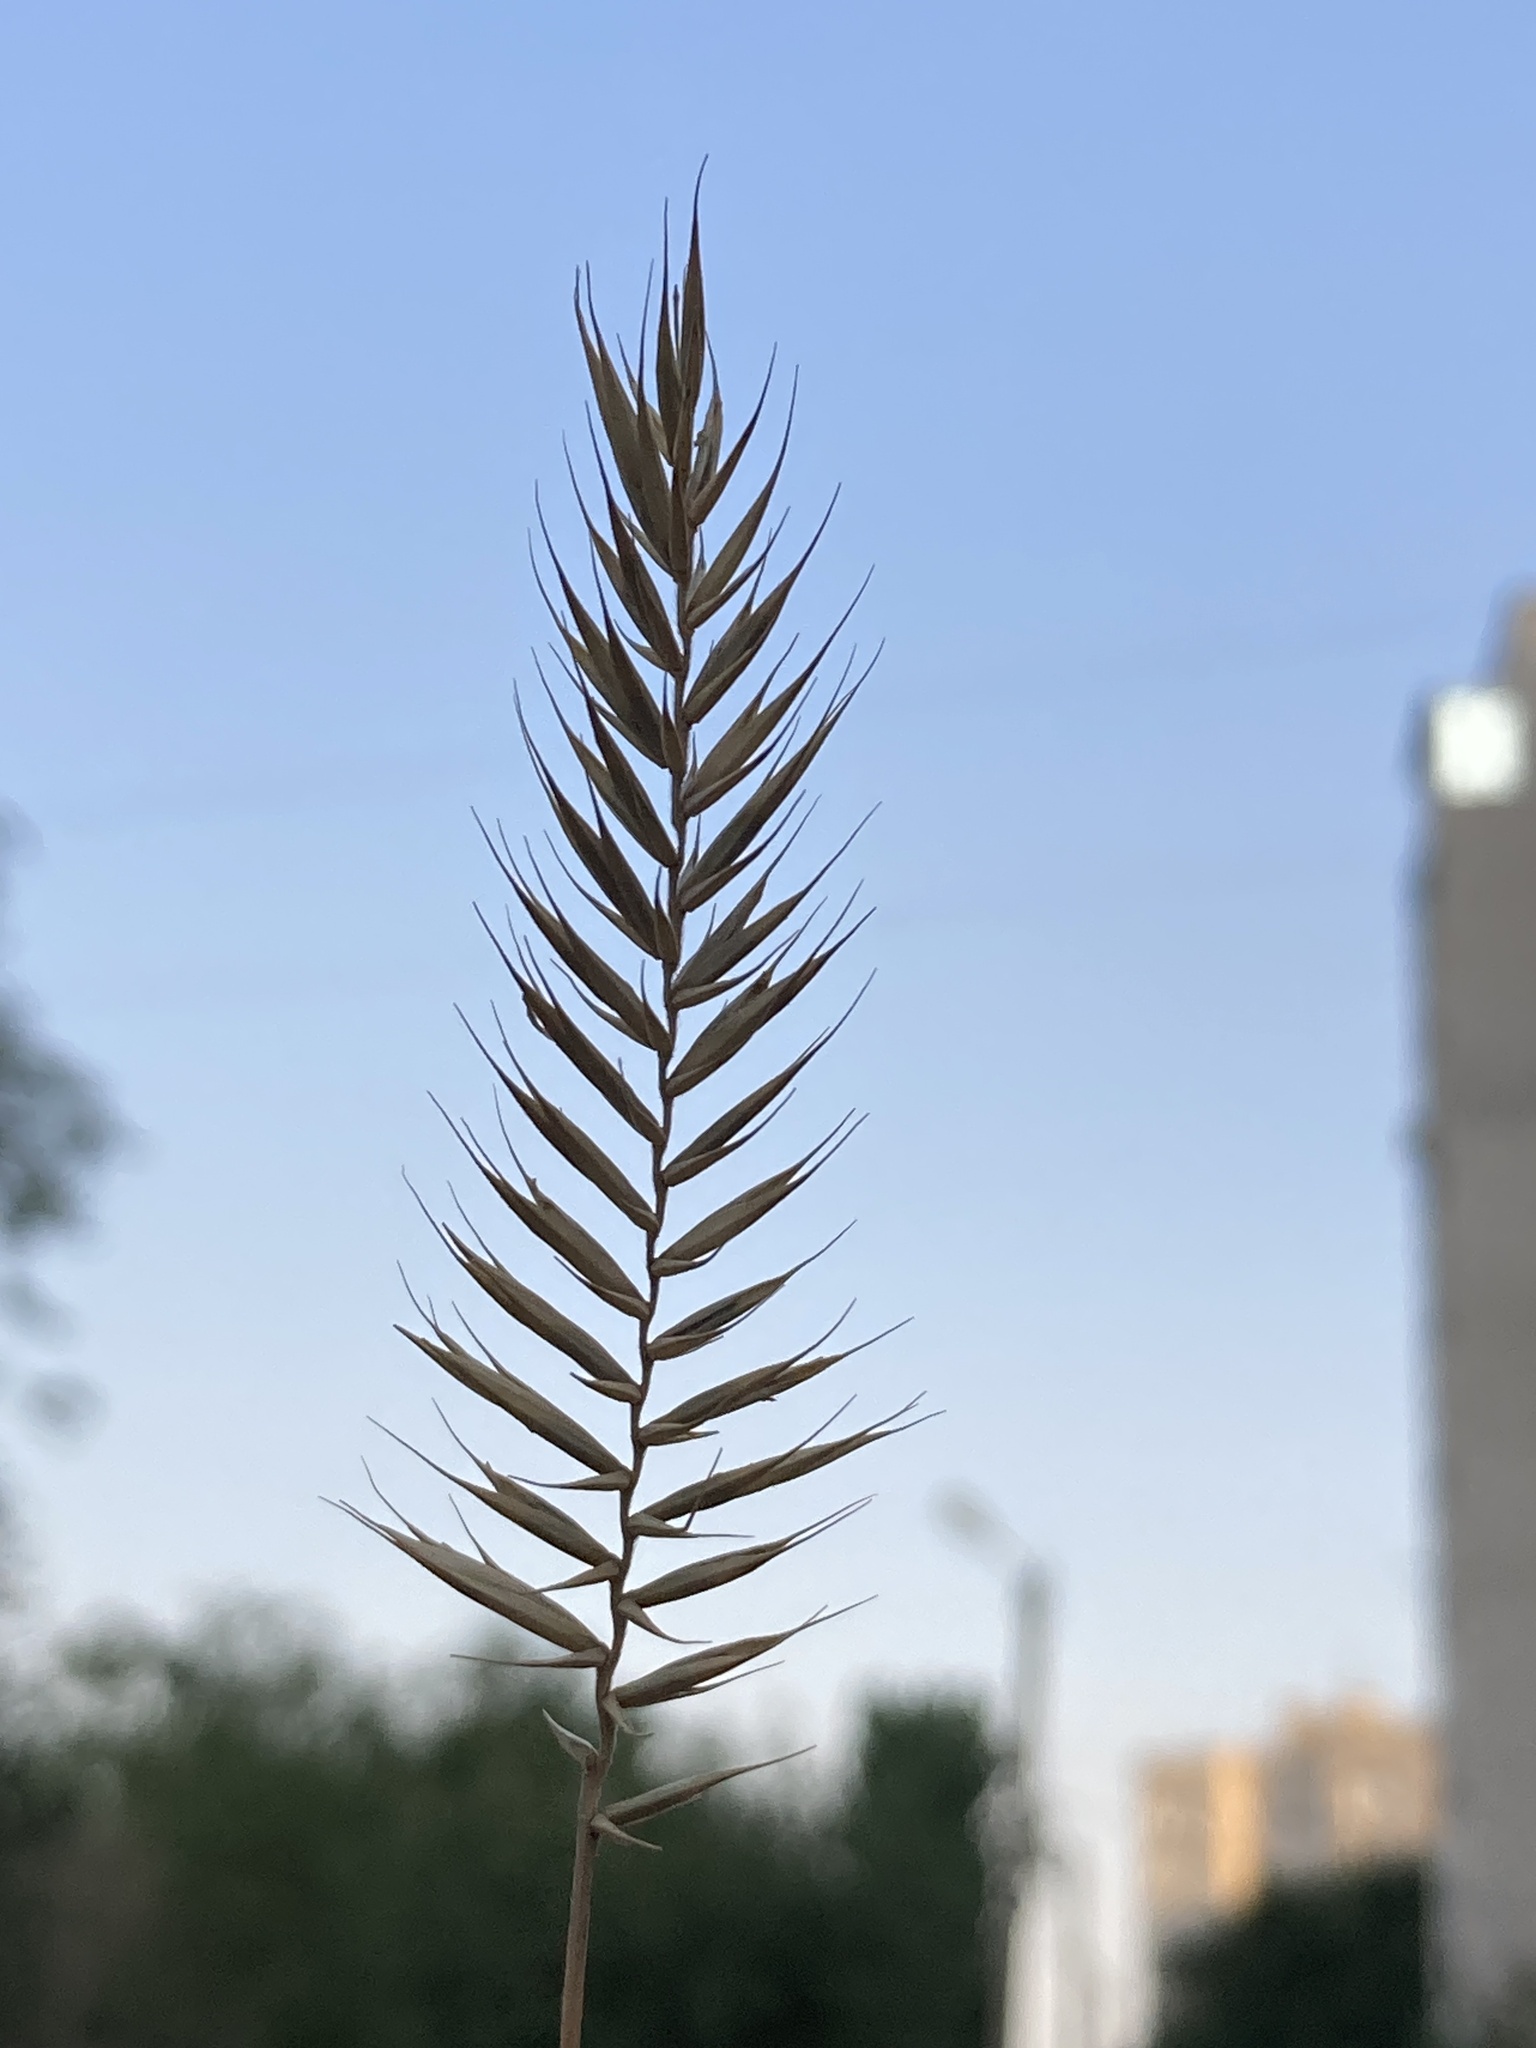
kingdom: Plantae
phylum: Tracheophyta
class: Liliopsida
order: Poales
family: Poaceae
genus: Agropyron
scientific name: Agropyron cristatum
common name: Crested wheatgrass
